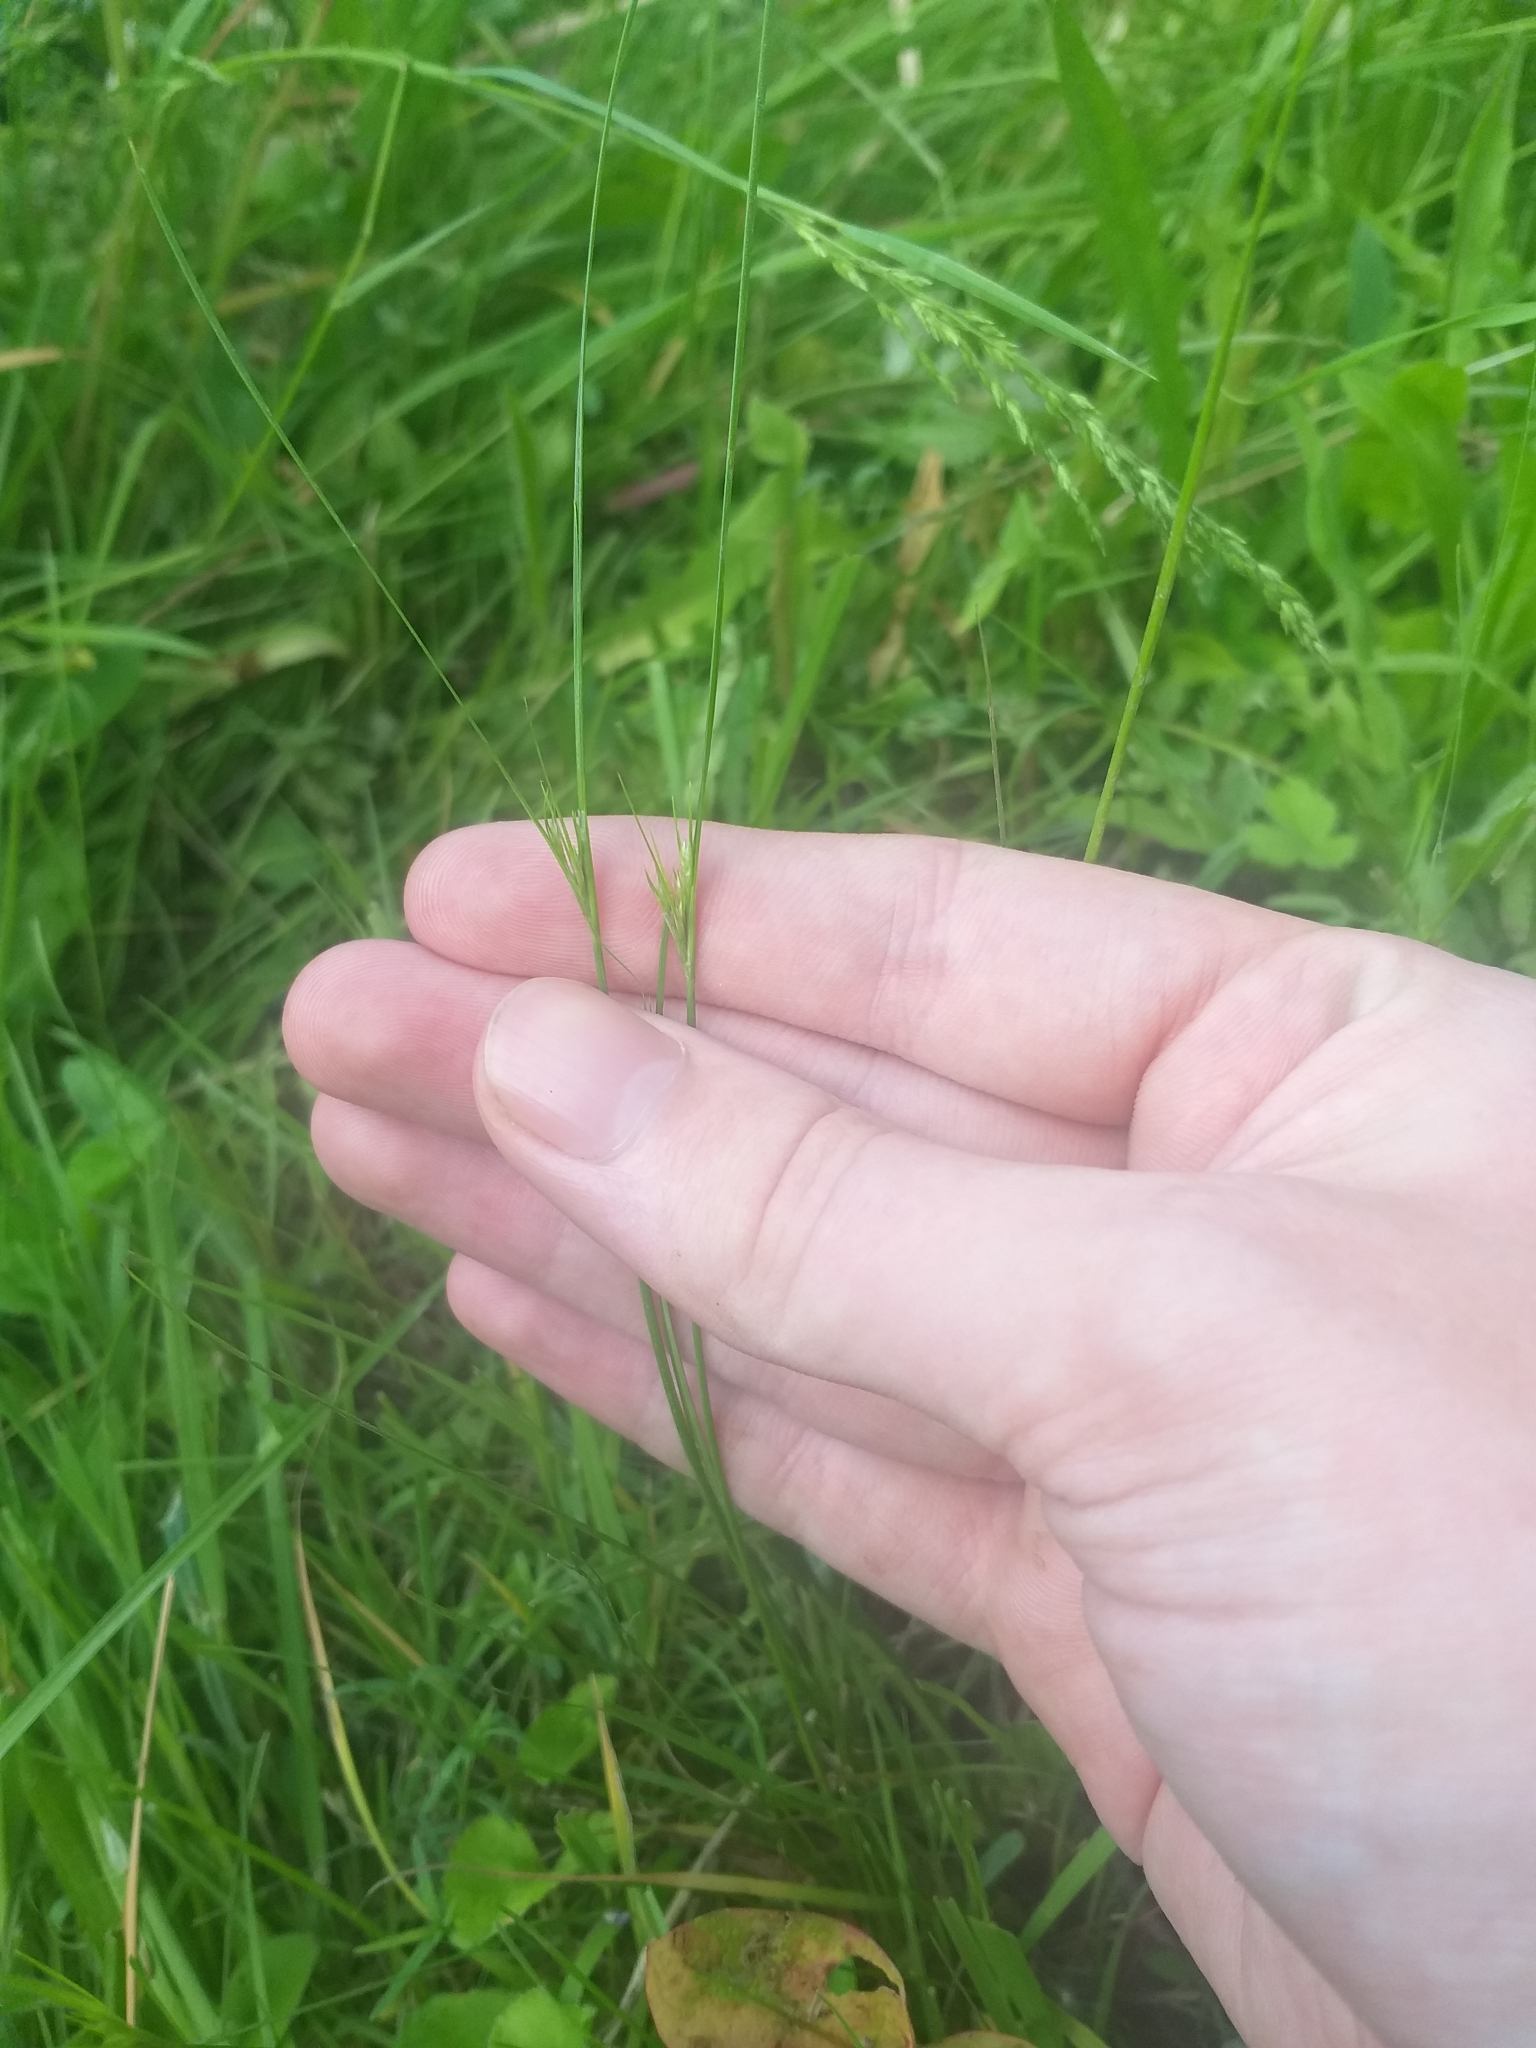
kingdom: Plantae
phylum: Tracheophyta
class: Liliopsida
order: Poales
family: Juncaceae
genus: Juncus
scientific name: Juncus tenuis
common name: Slender rush
